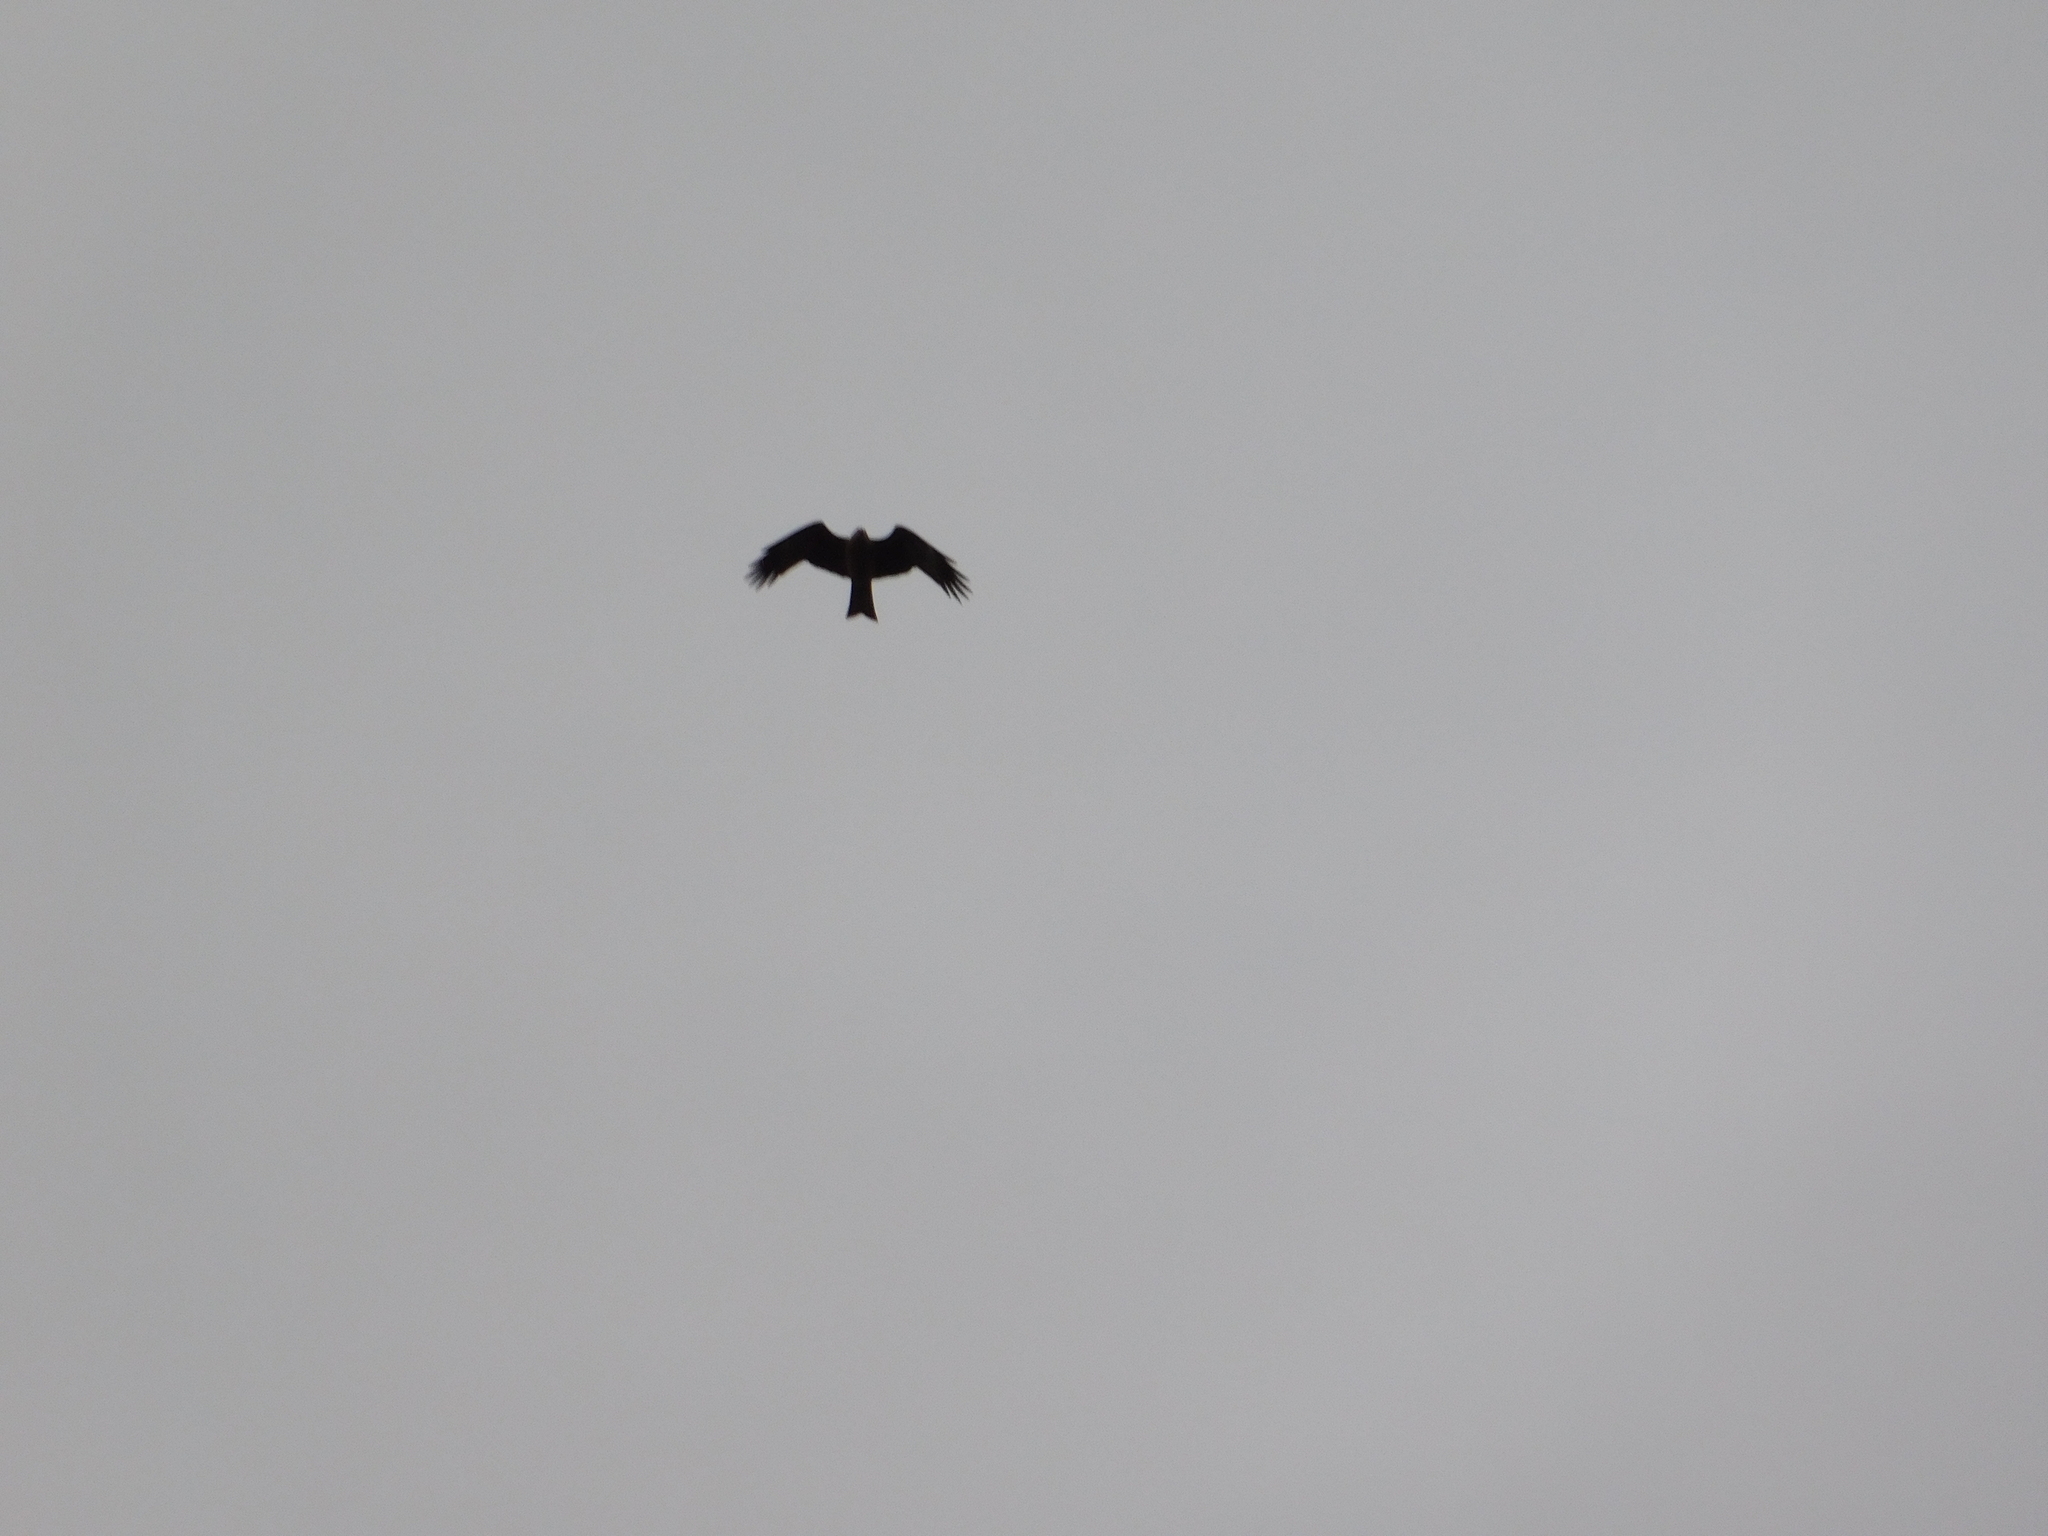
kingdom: Animalia
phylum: Chordata
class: Aves
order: Accipitriformes
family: Accipitridae
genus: Milvus
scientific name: Milvus migrans
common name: Black kite
